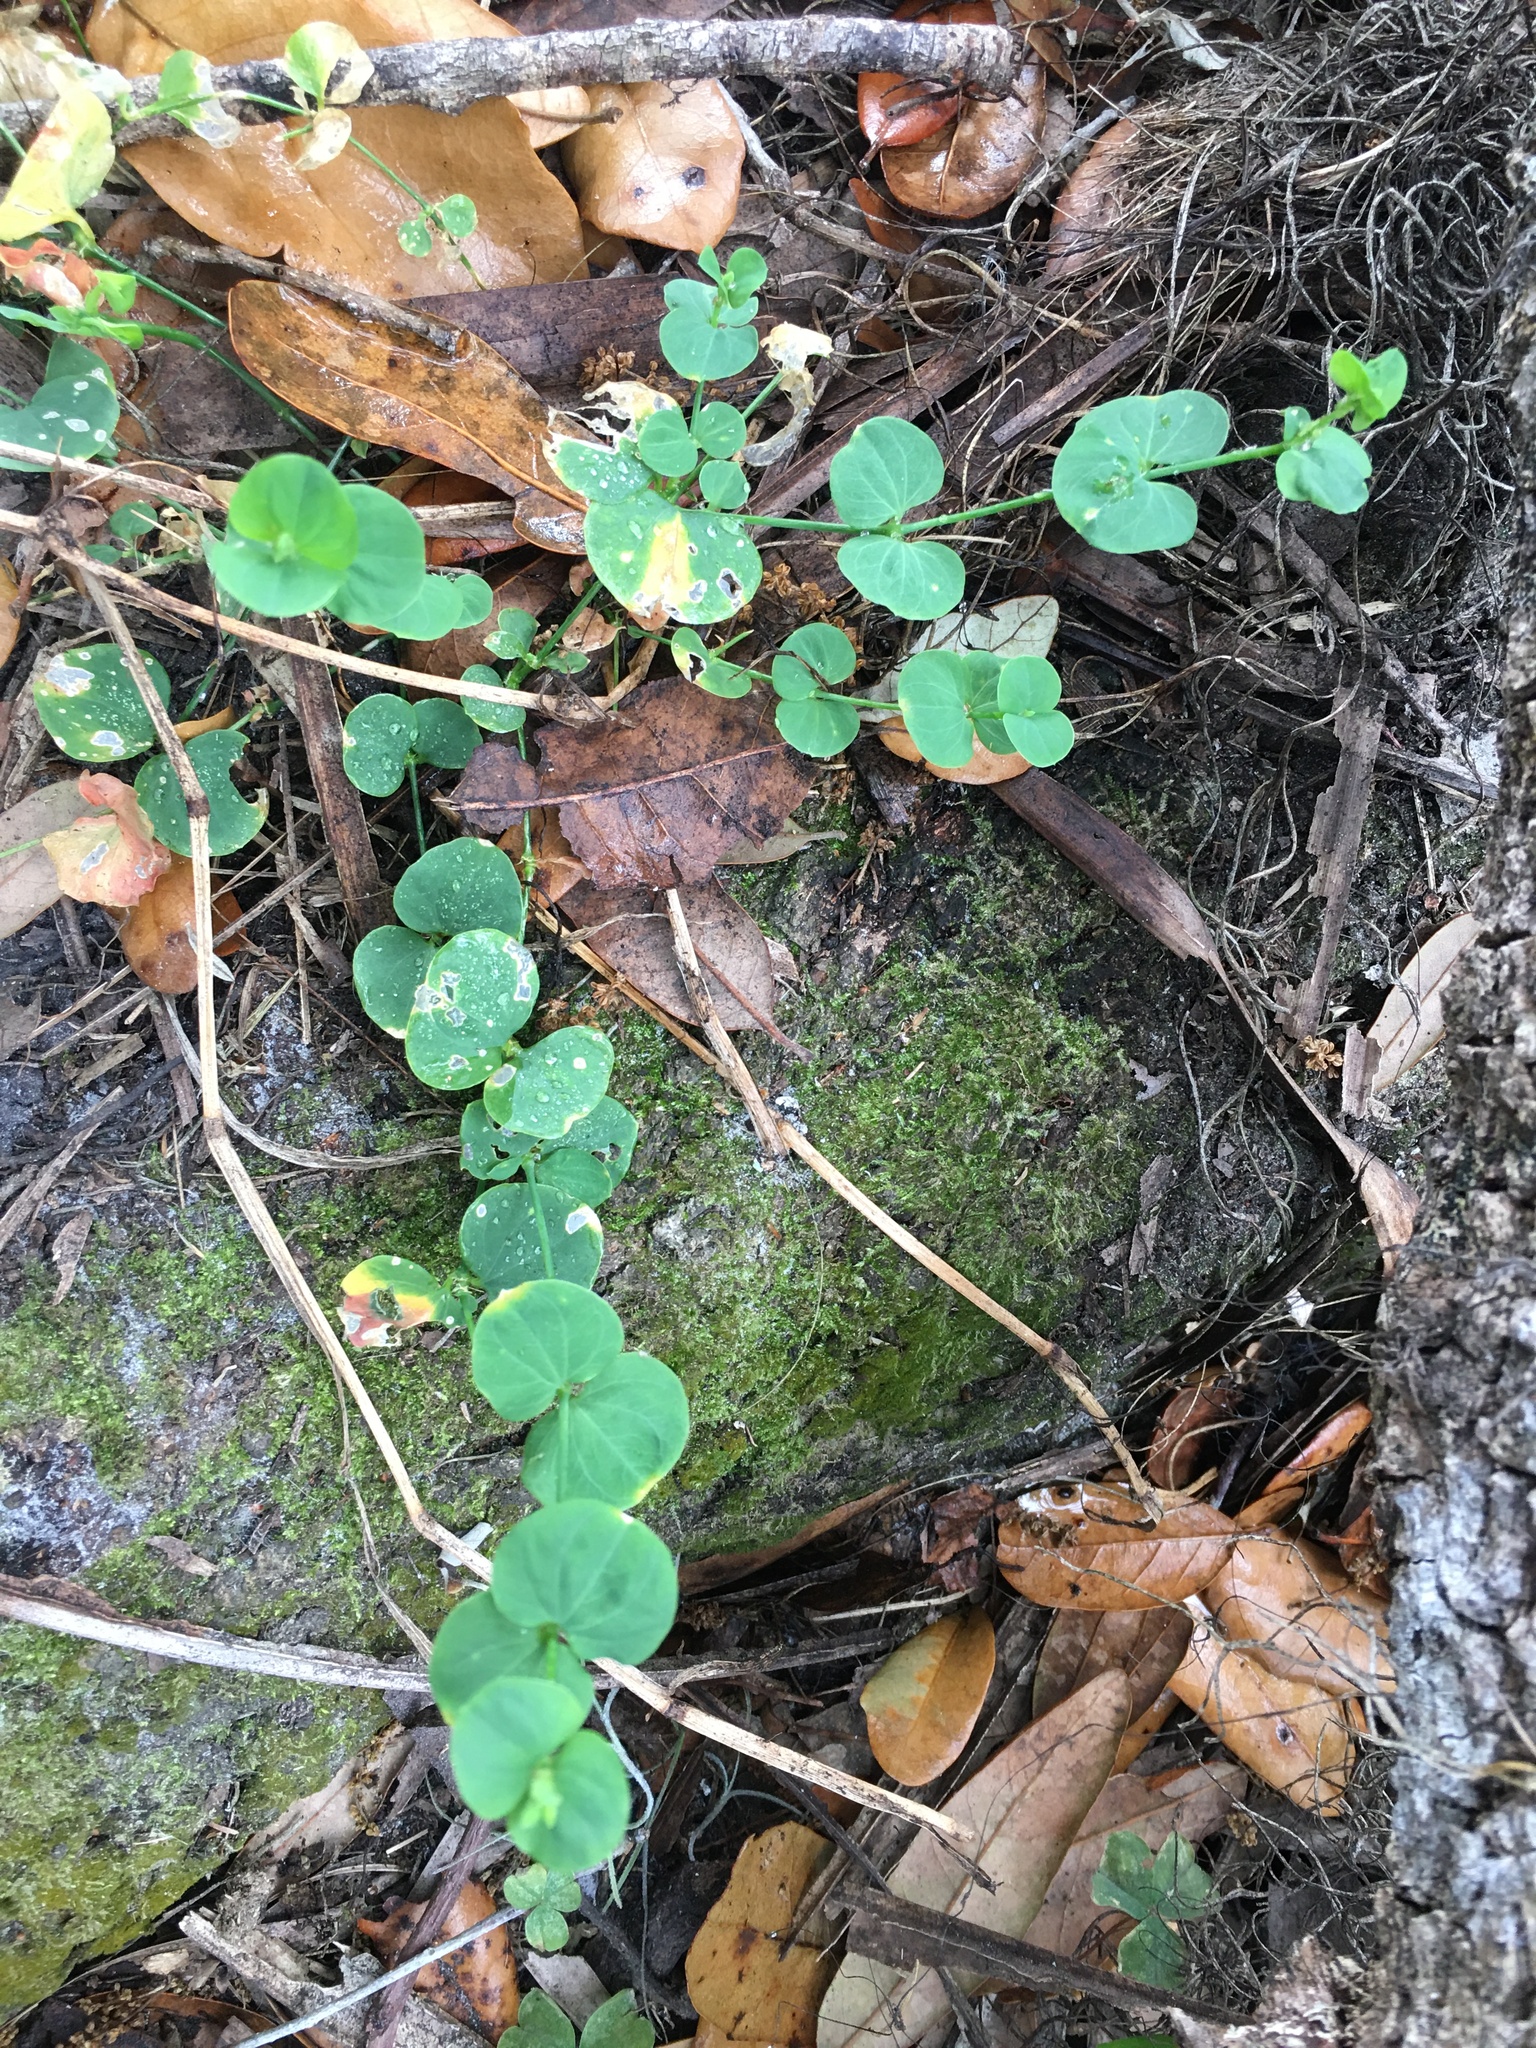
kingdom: Plantae
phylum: Tracheophyta
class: Magnoliopsida
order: Caryophyllales
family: Caryophyllaceae
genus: Drymaria
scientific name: Drymaria cordata
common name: Whitesnow
